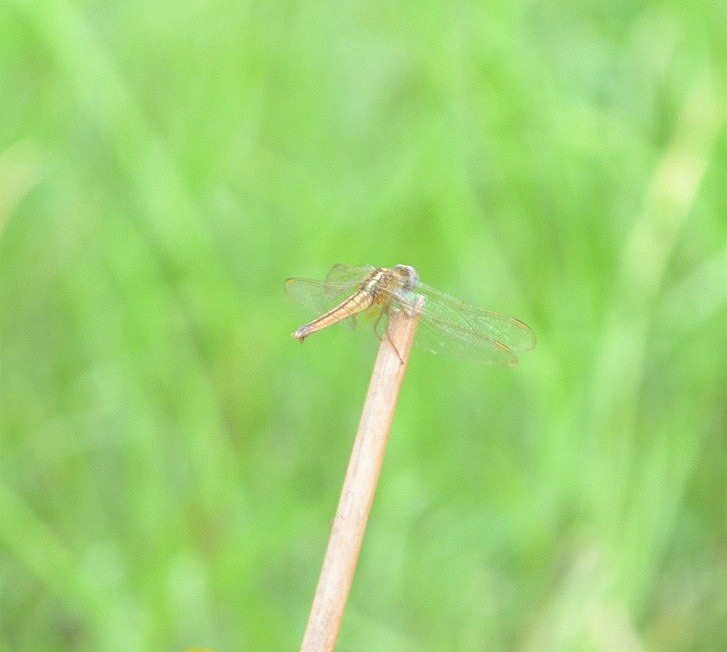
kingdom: Animalia
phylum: Arthropoda
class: Insecta
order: Odonata
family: Libellulidae
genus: Crocothemis
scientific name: Crocothemis servilia
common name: Scarlet skimmer
